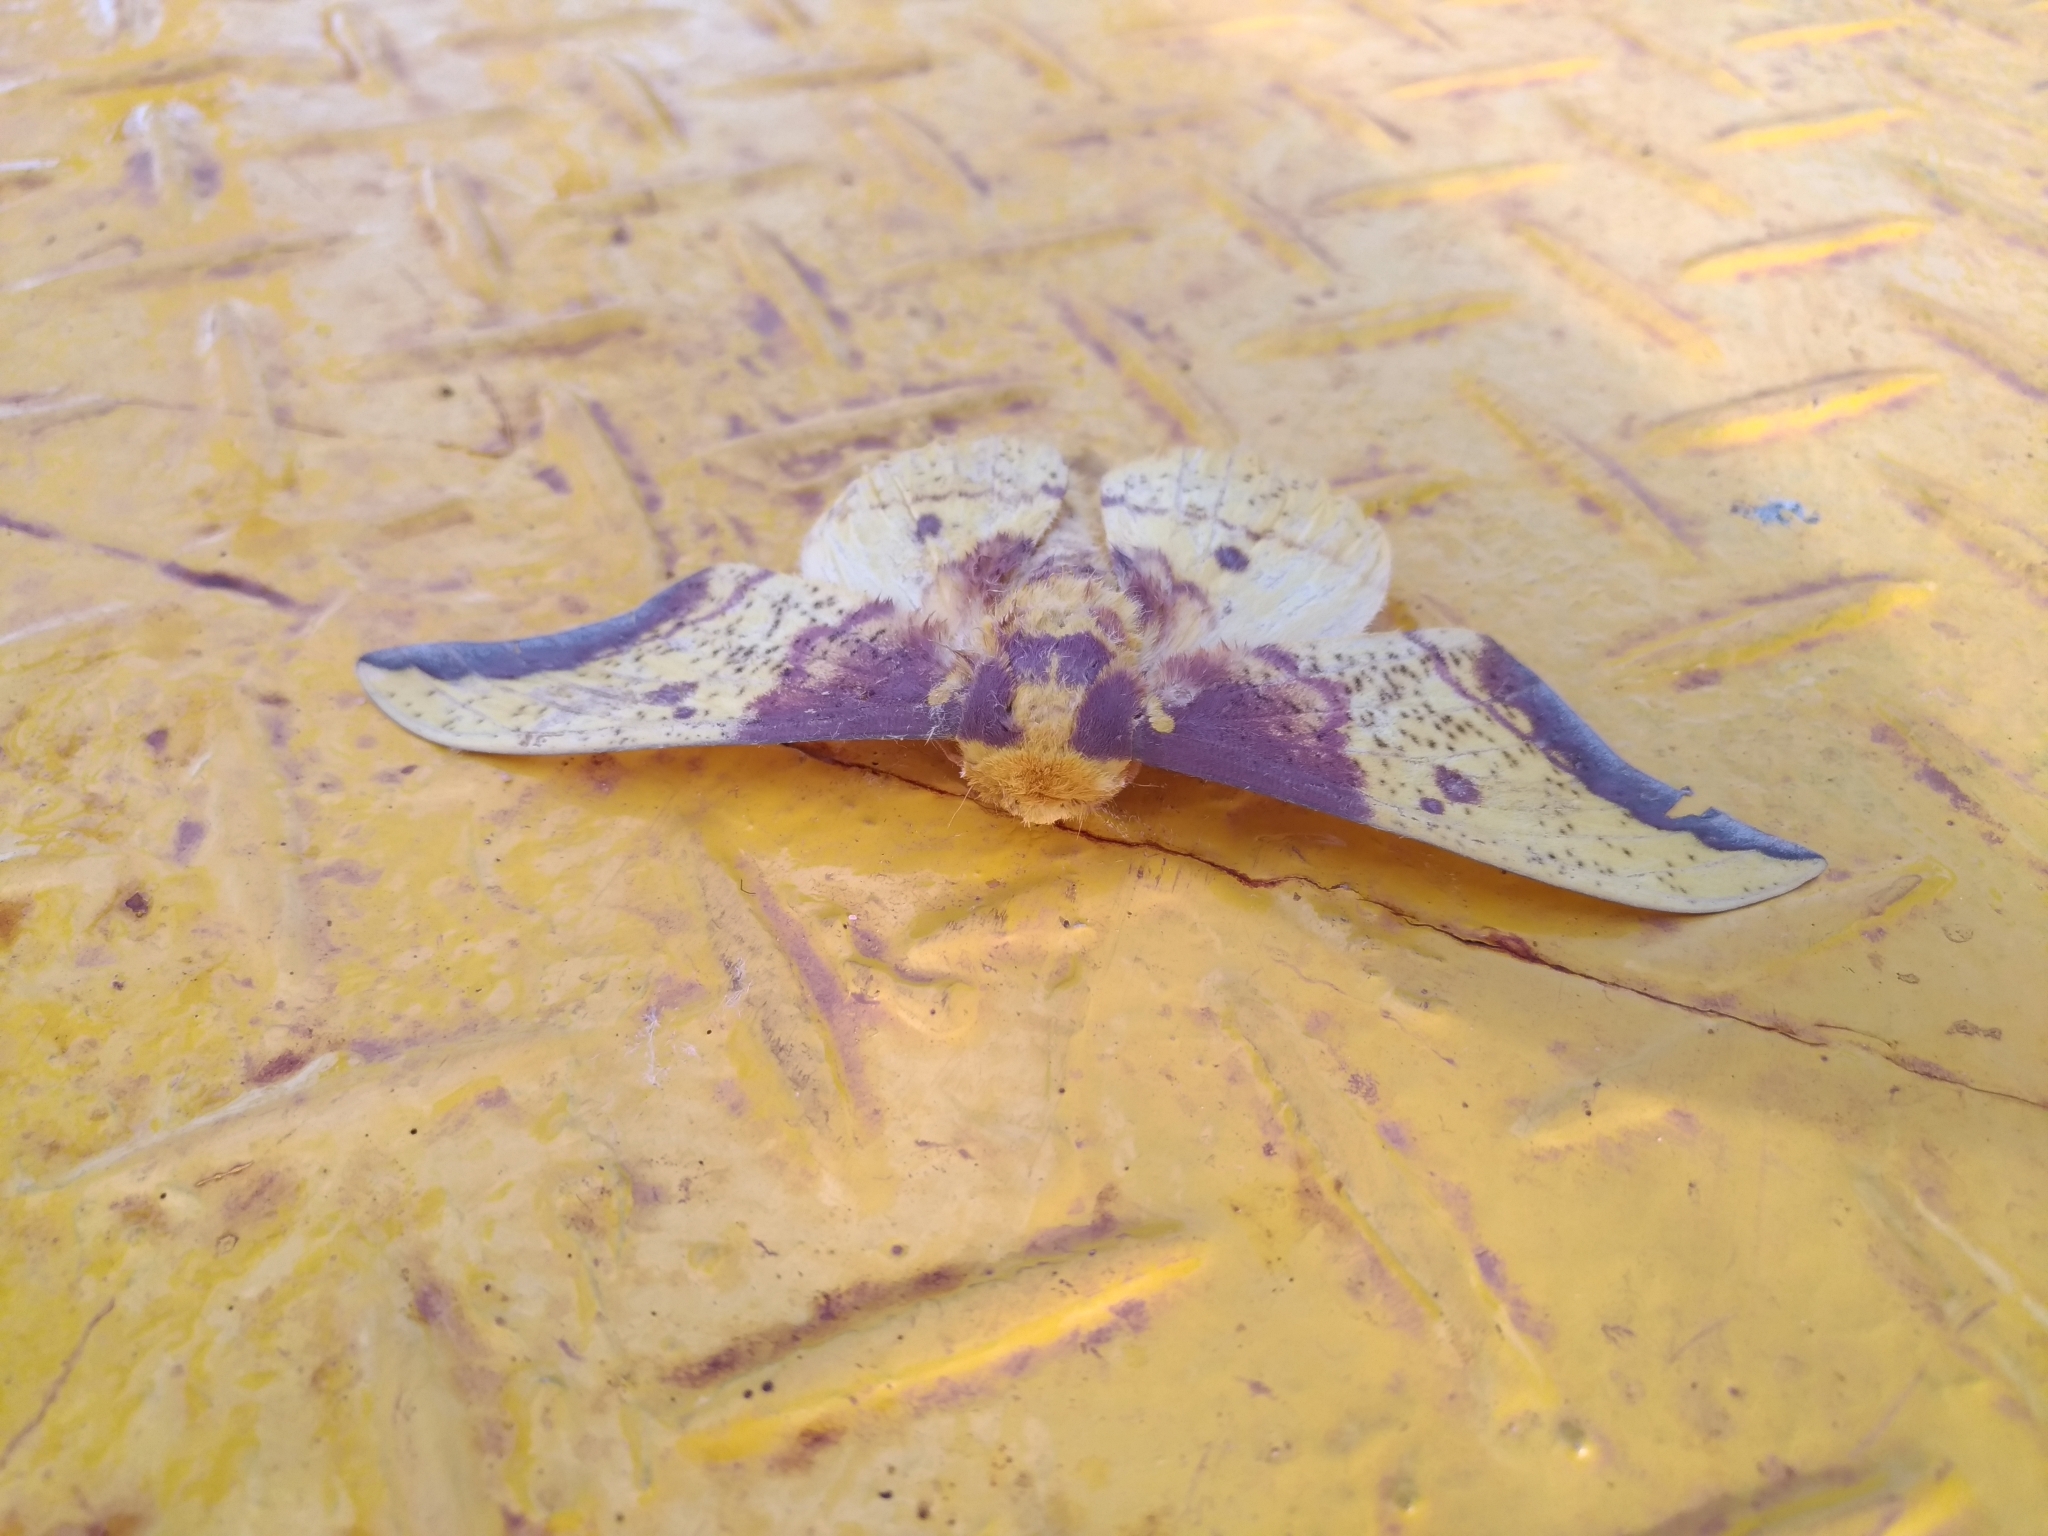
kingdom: Animalia
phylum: Arthropoda
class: Insecta
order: Lepidoptera
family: Saturniidae
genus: Eacles
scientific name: Eacles imperialis
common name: Imperial moth
